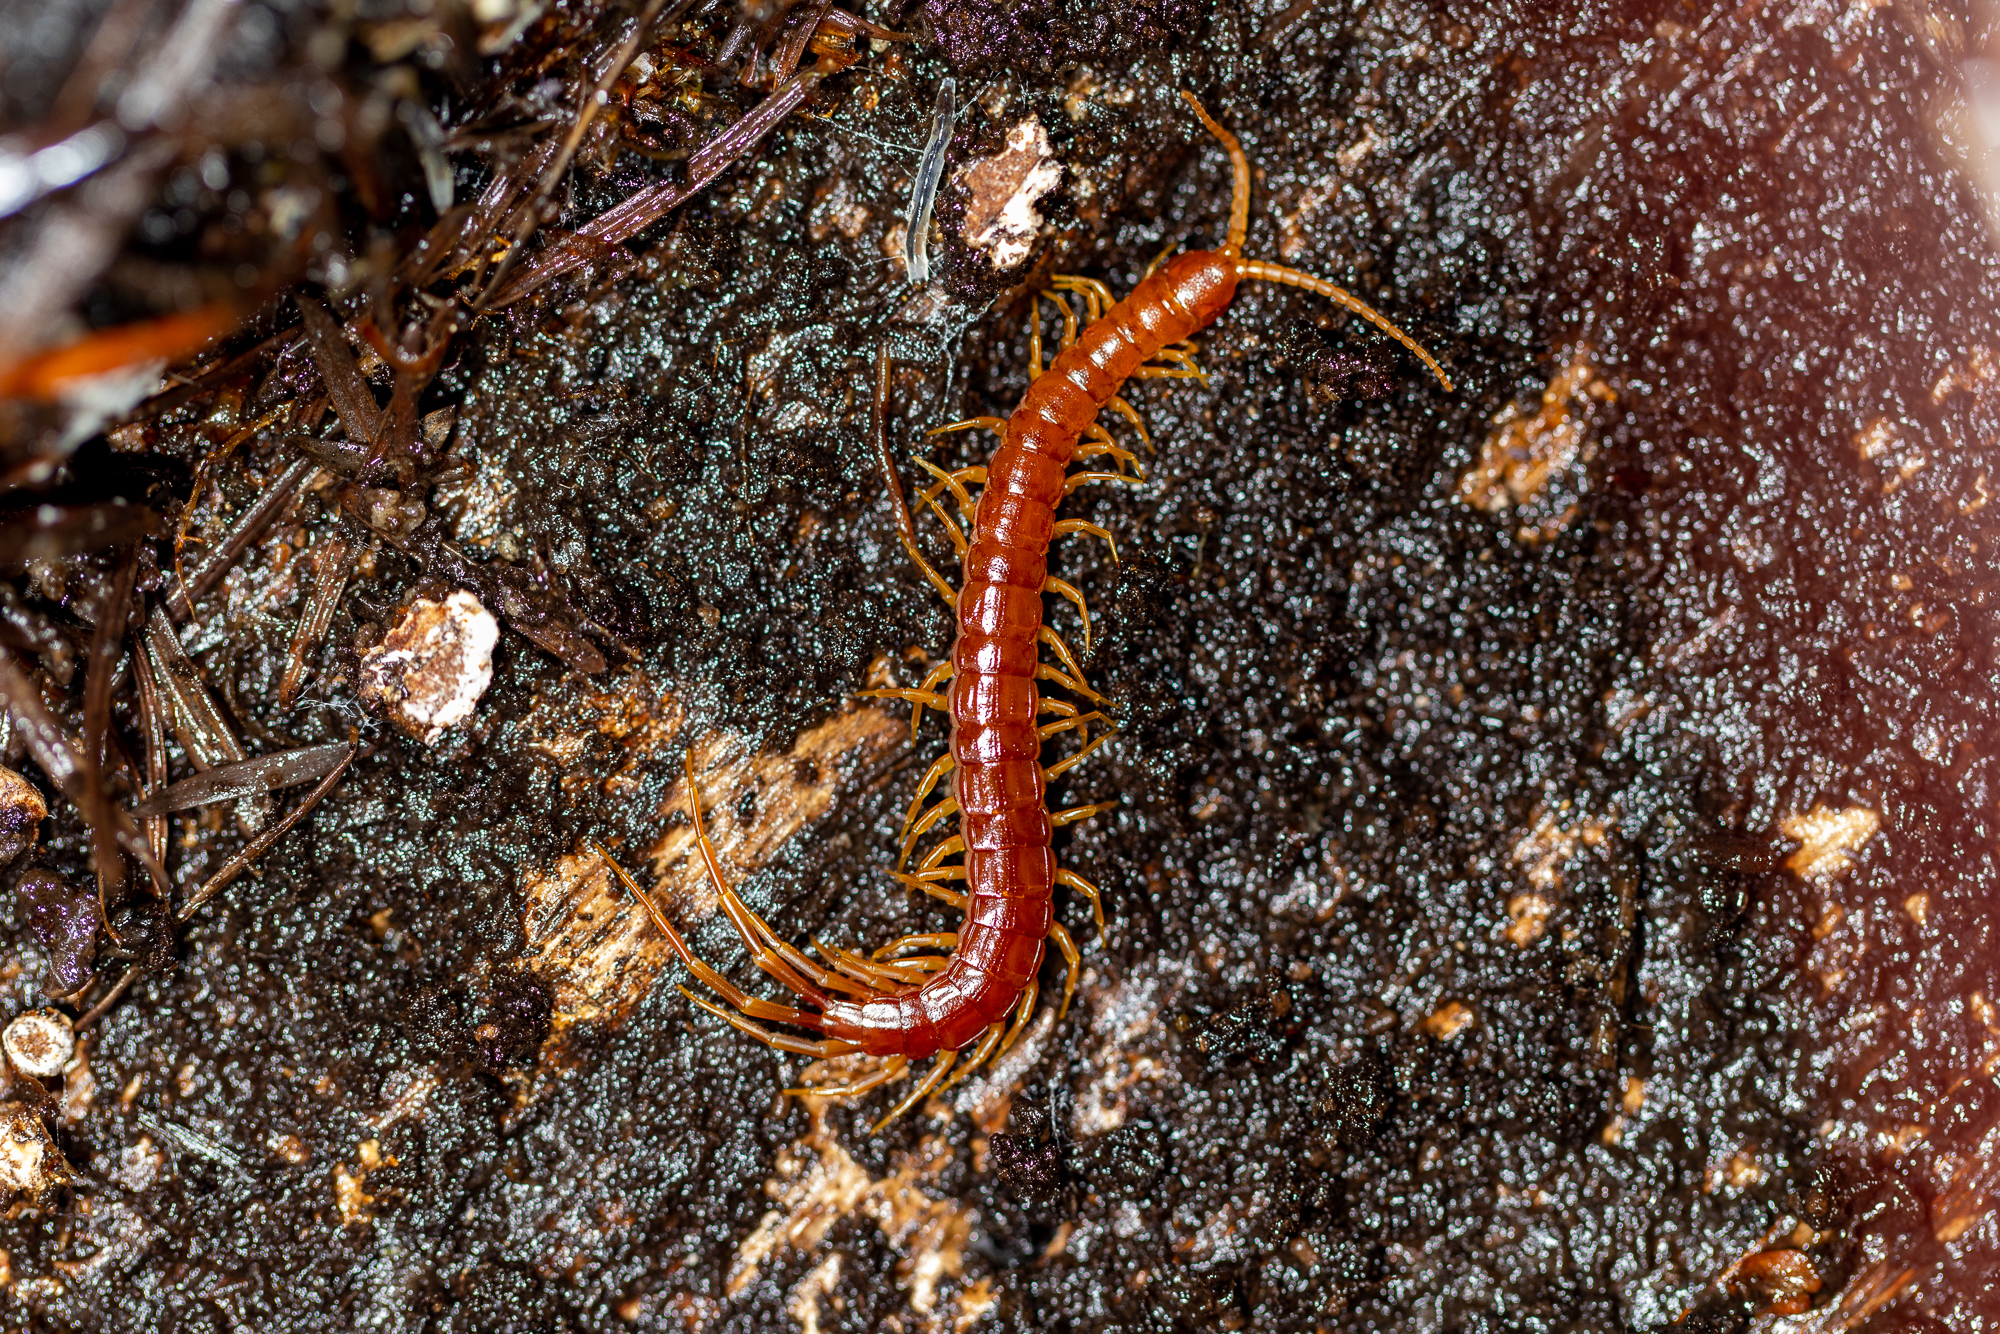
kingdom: Animalia
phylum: Arthropoda
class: Chilopoda
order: Scolopendromorpha
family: Scolopocryptopidae
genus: Scolopocryptops
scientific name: Scolopocryptops spinicaudus
